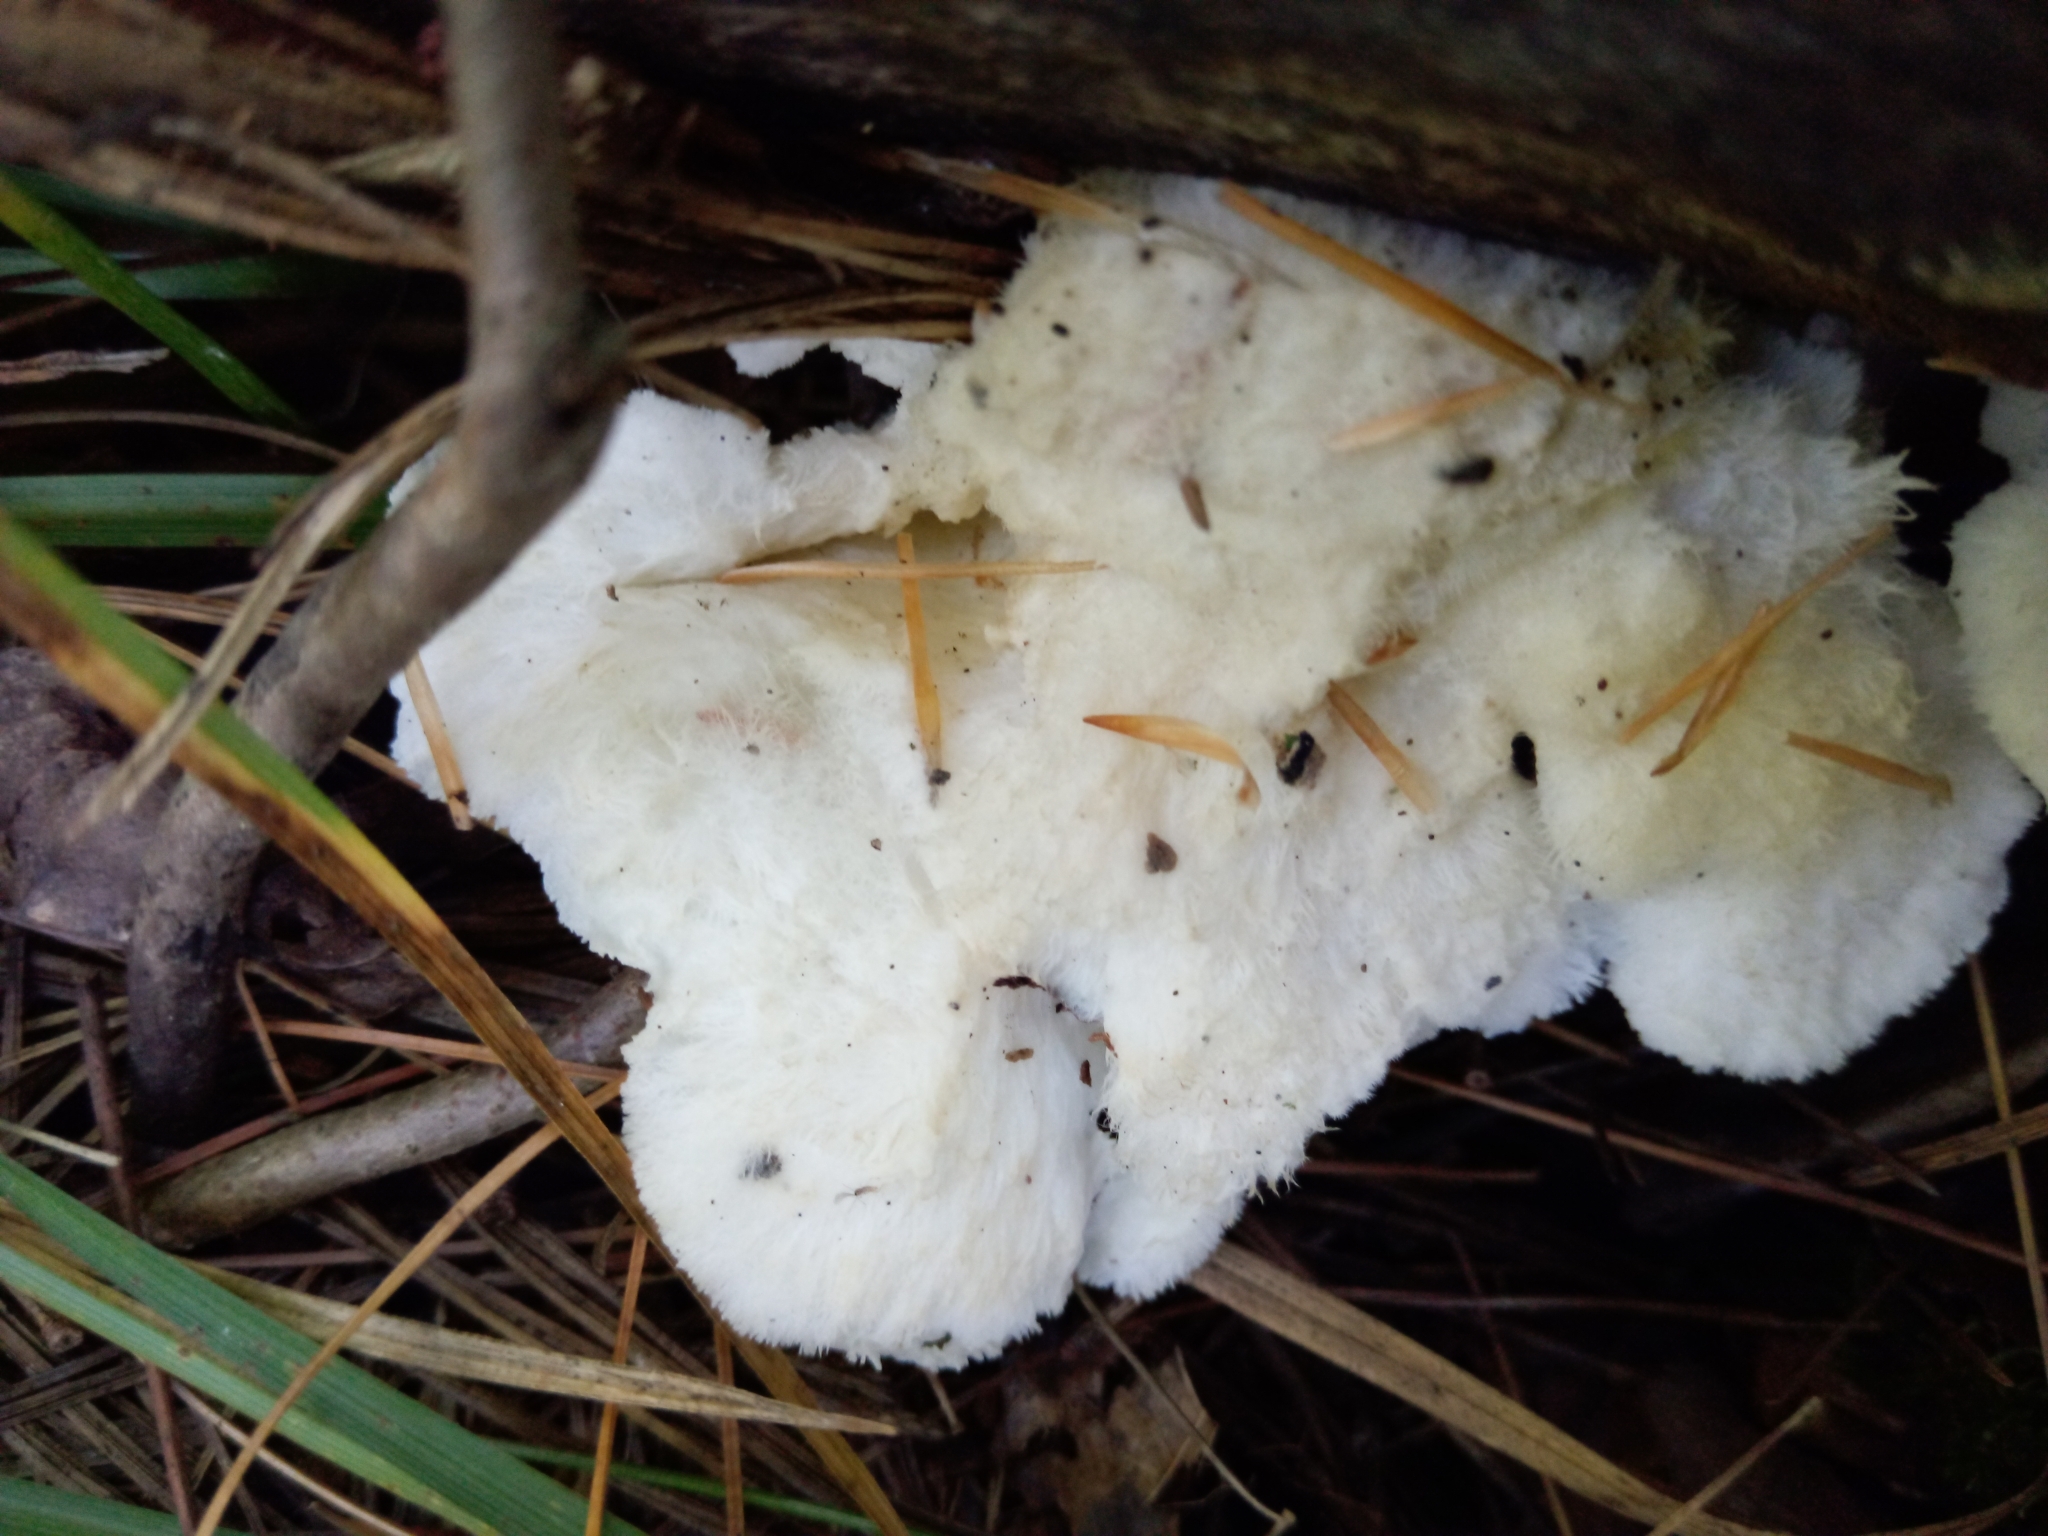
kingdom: Fungi
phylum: Basidiomycota
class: Agaricomycetes
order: Polyporales
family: Meruliaceae
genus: Donkia
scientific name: Donkia pulcherrima
